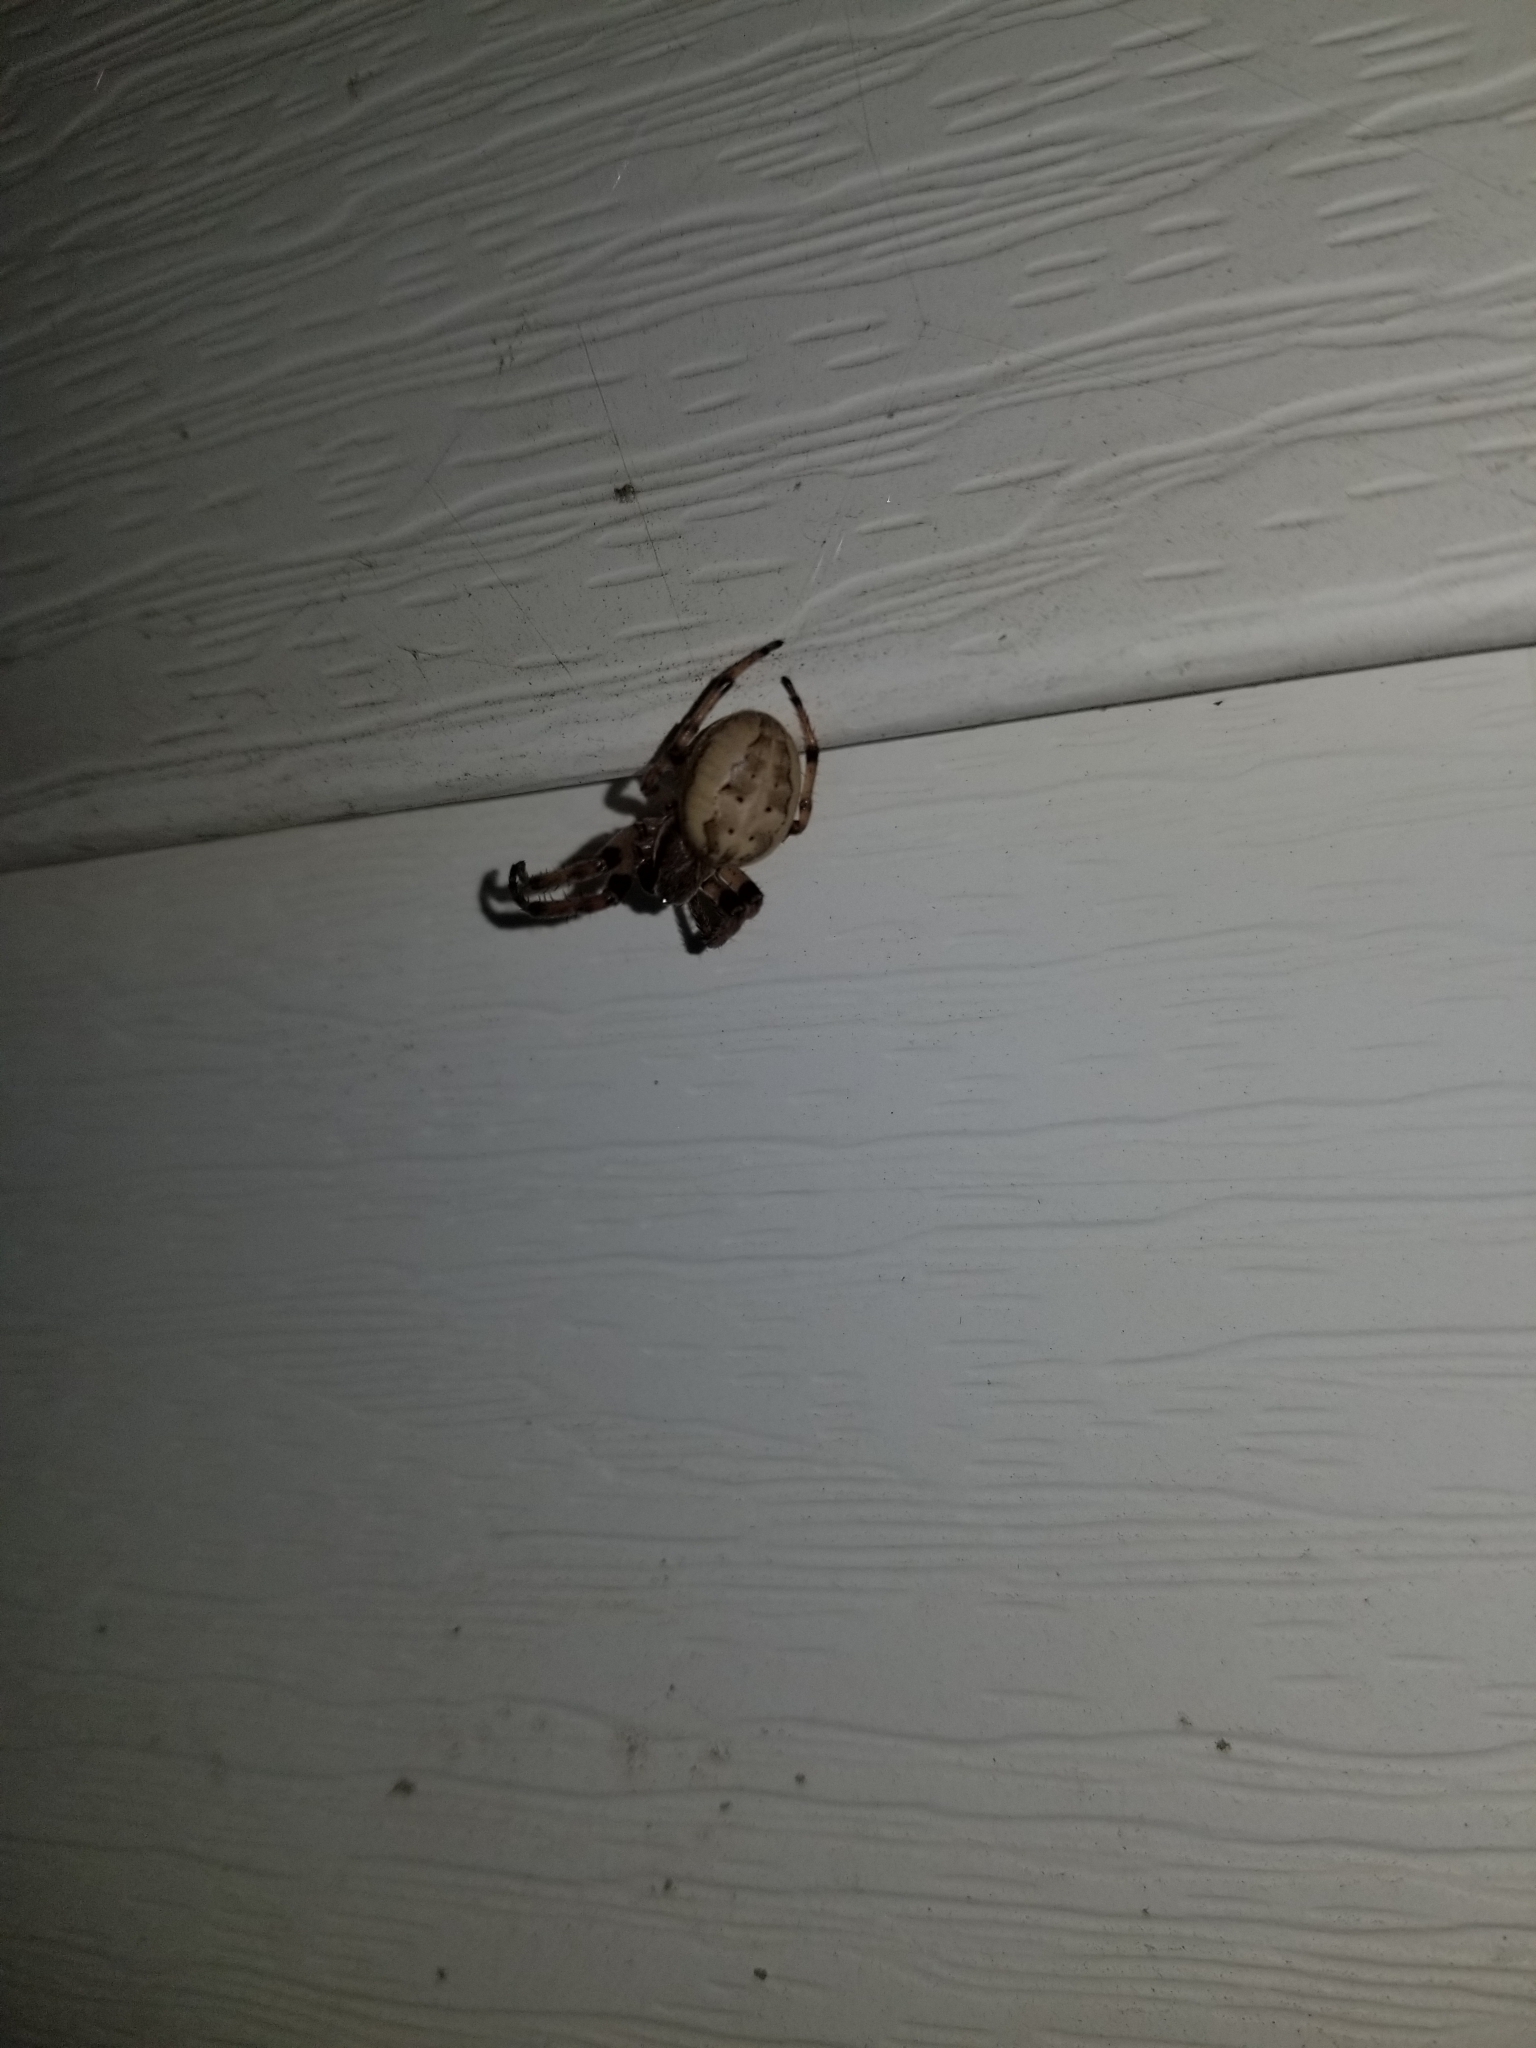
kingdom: Animalia
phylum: Arthropoda
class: Arachnida
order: Araneae
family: Araneidae
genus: Larinioides
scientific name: Larinioides cornutus
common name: Furrow orbweaver
